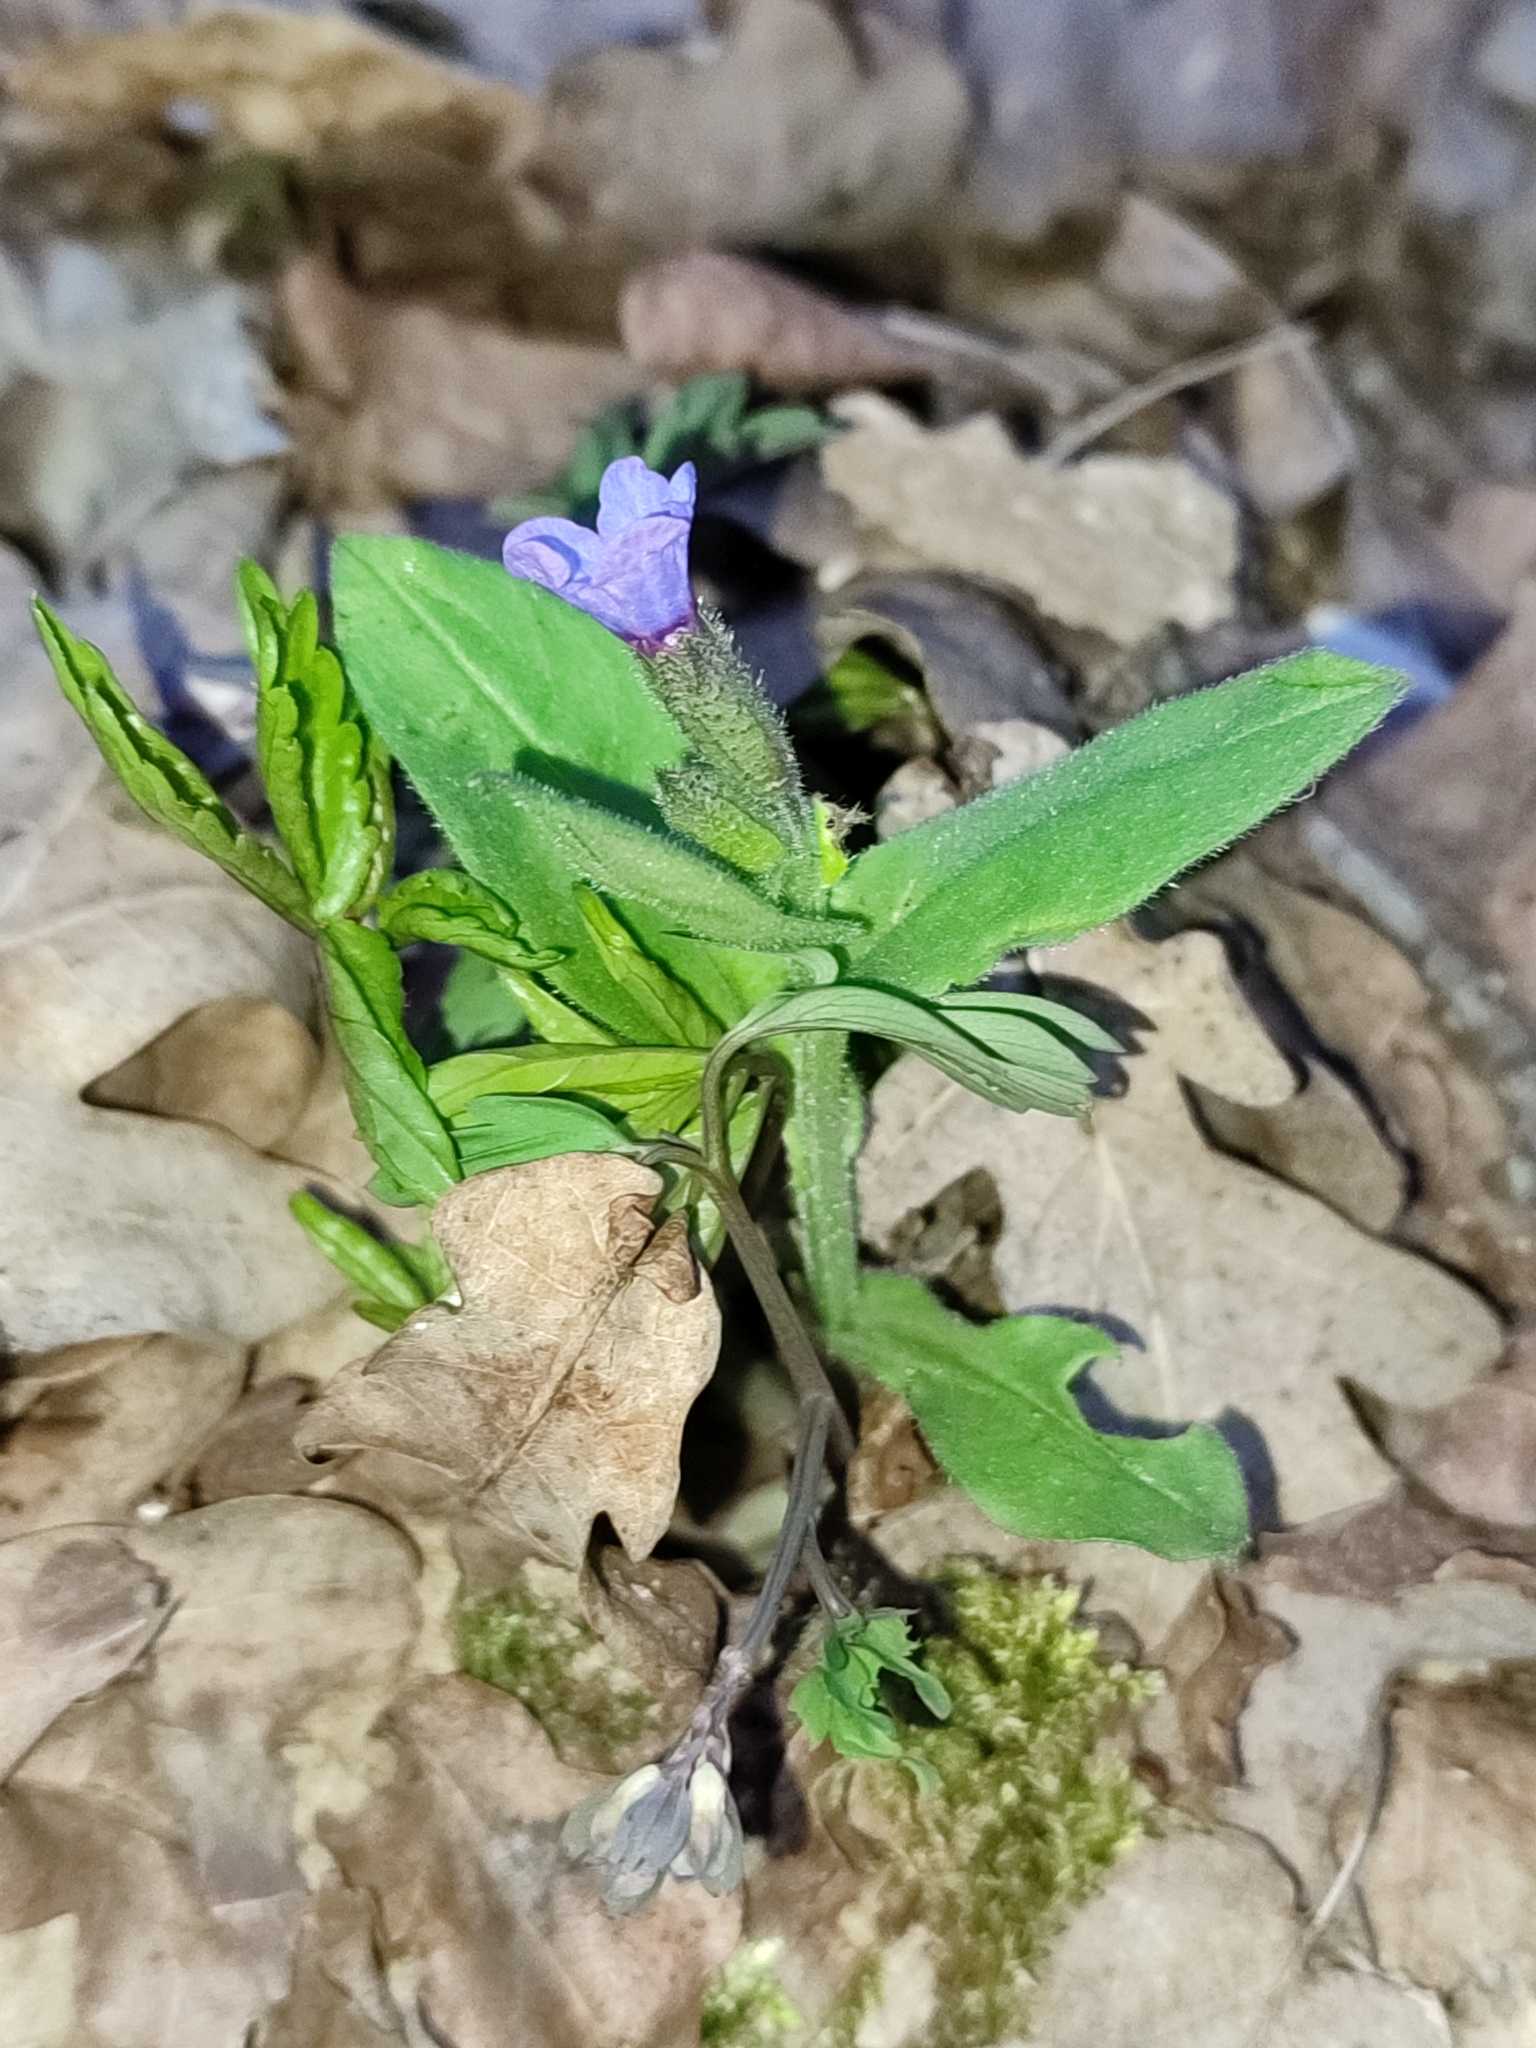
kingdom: Plantae
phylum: Tracheophyta
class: Magnoliopsida
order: Boraginales
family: Boraginaceae
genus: Pulmonaria
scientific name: Pulmonaria obscura
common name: Suffolk lungwort
